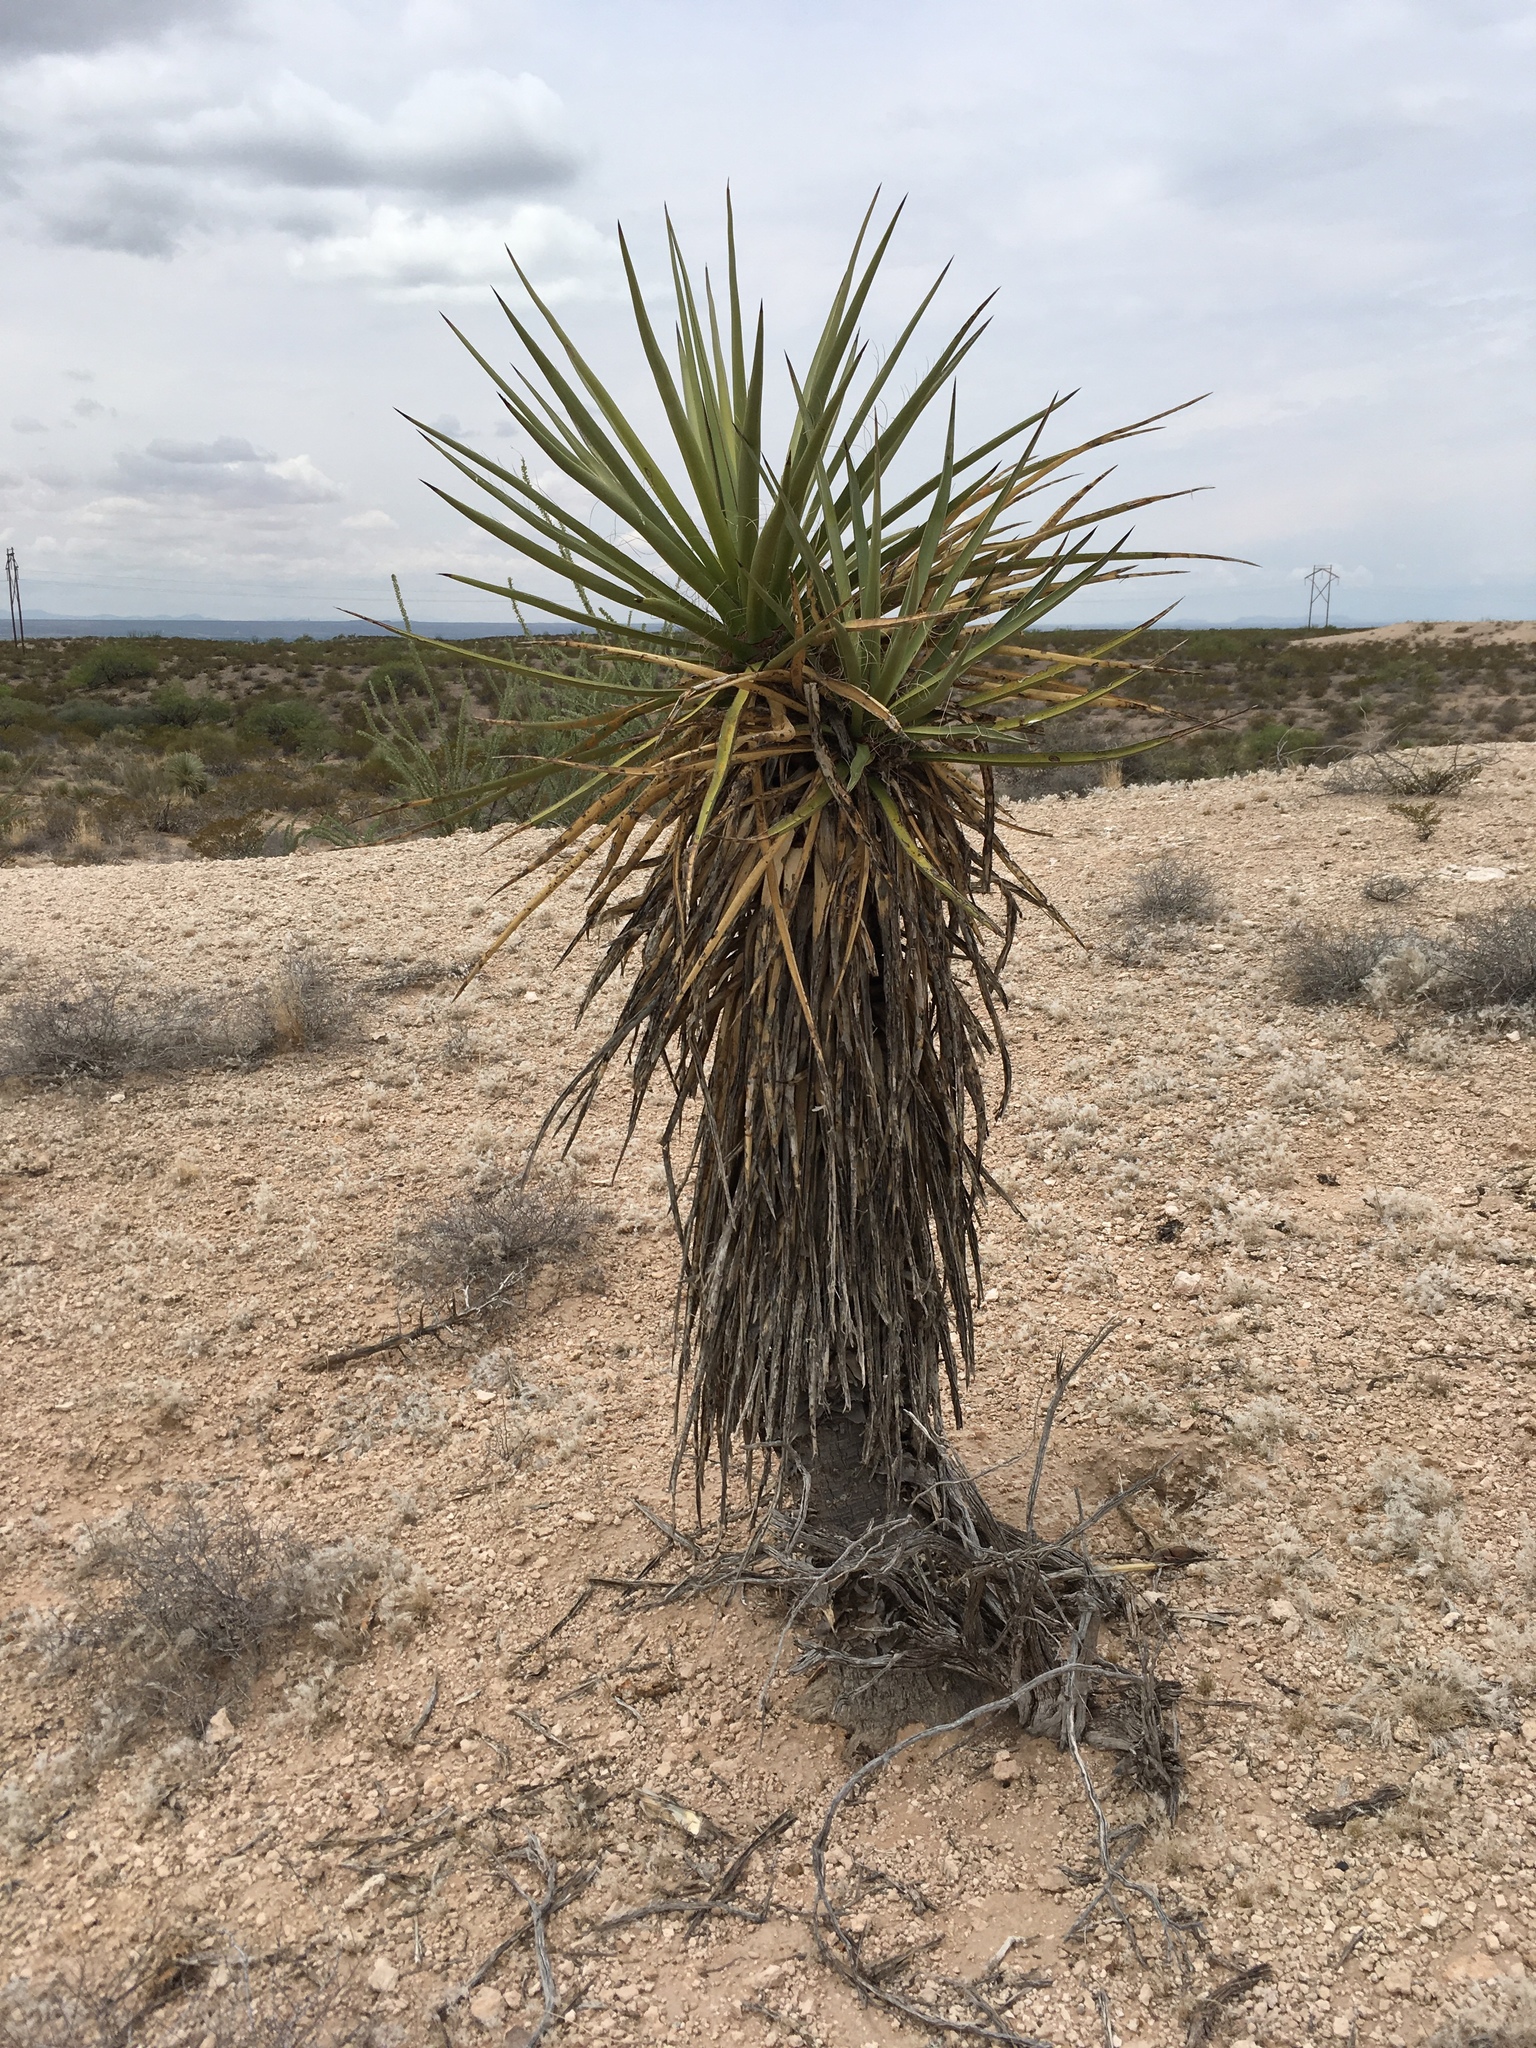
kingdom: Plantae
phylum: Tracheophyta
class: Liliopsida
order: Asparagales
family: Asparagaceae
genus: Yucca
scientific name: Yucca treculiana
